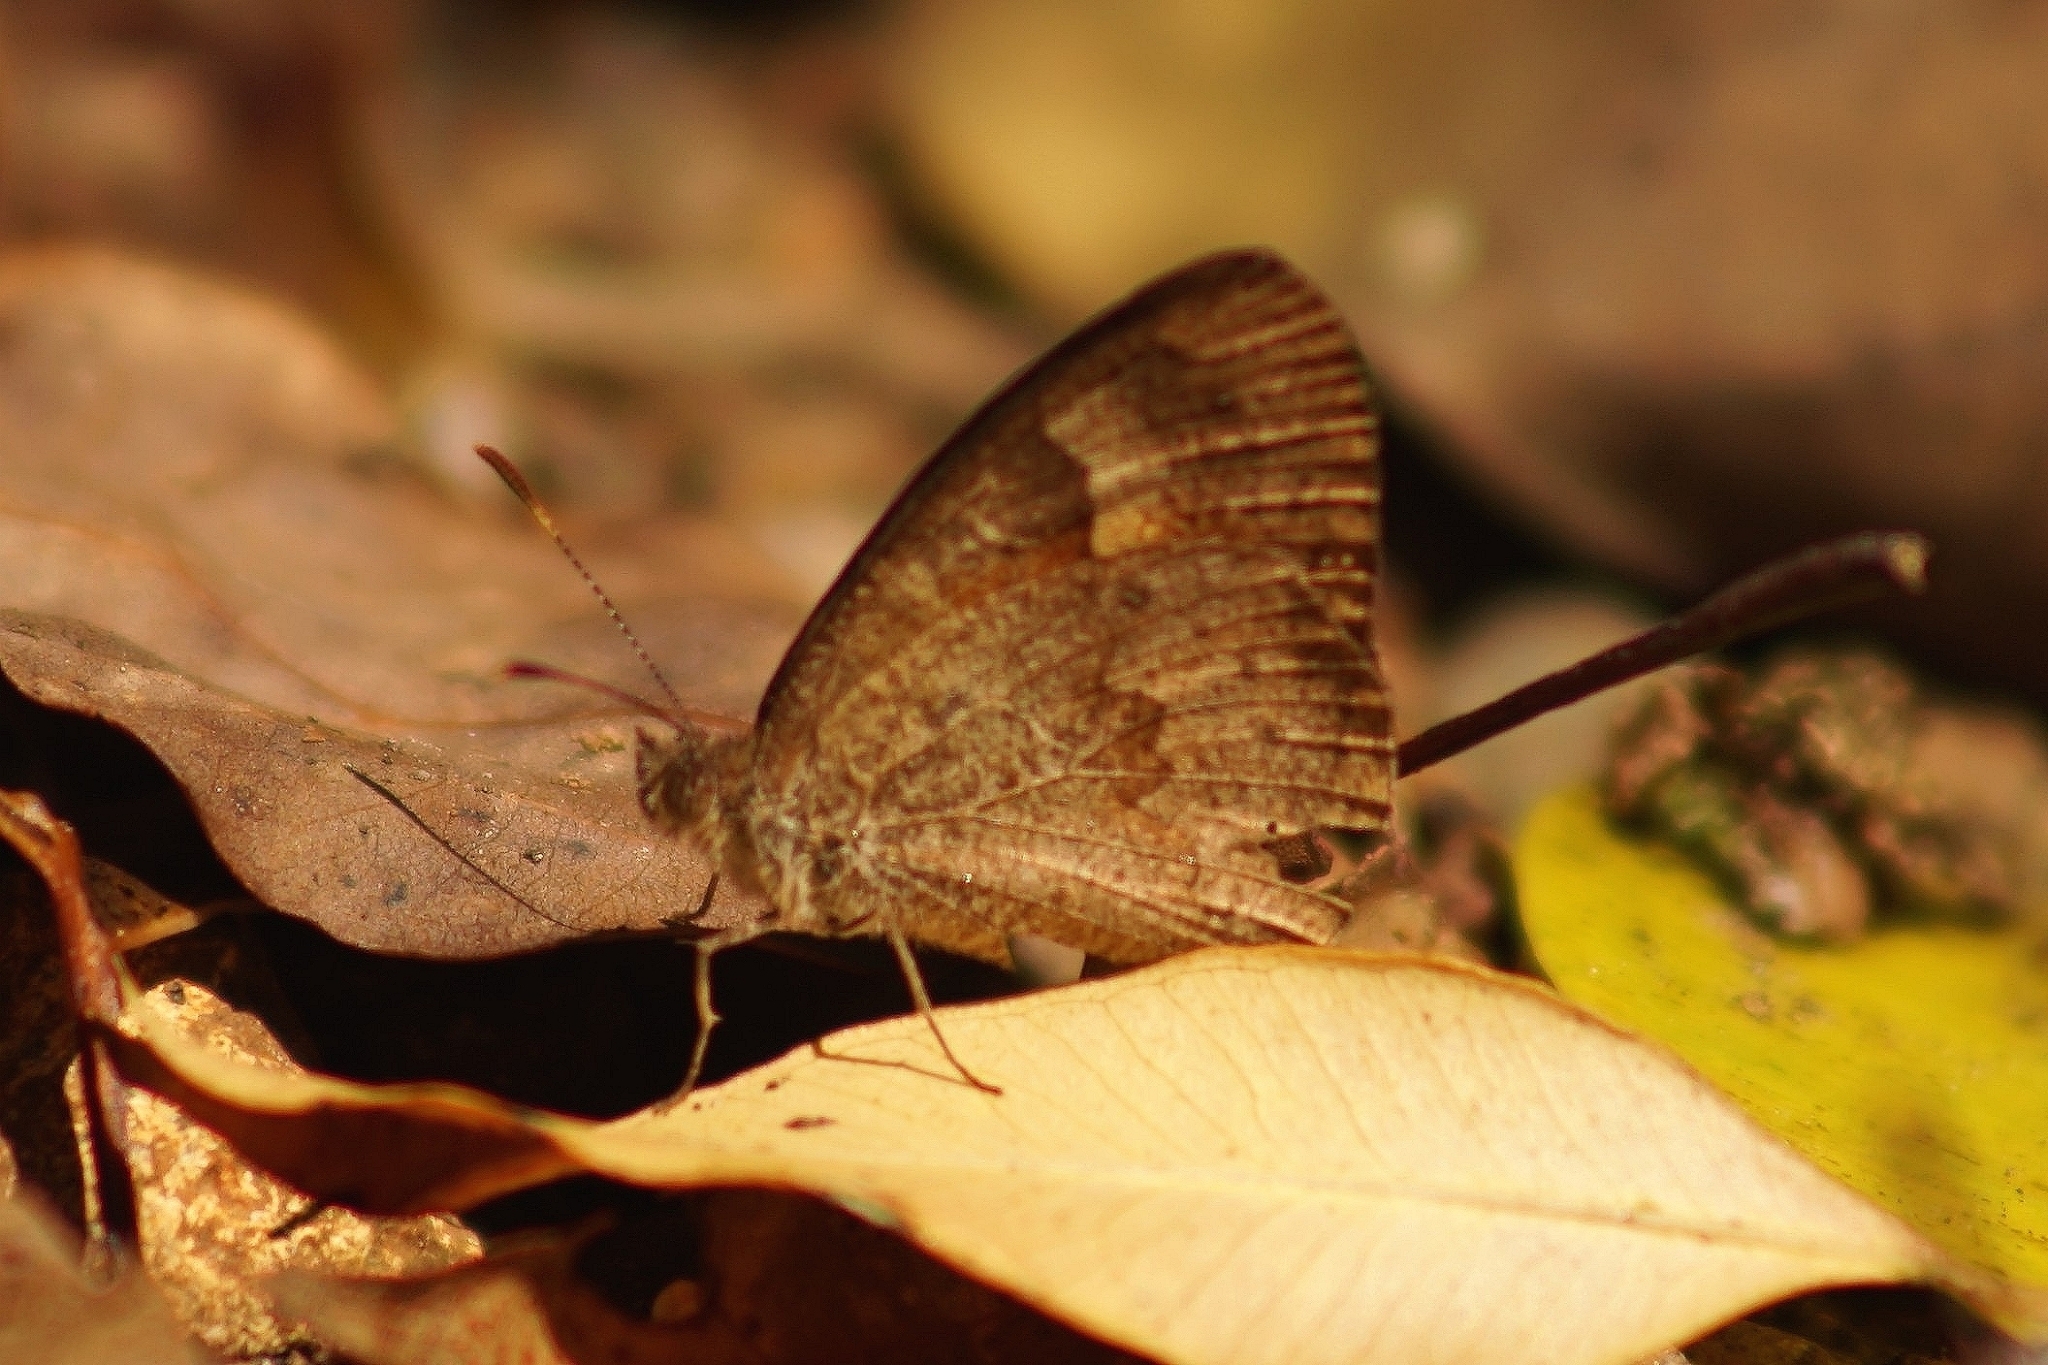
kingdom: Animalia
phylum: Arthropoda
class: Insecta
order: Lepidoptera
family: Nymphalidae
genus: Henotesia
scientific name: Henotesia narcissus
